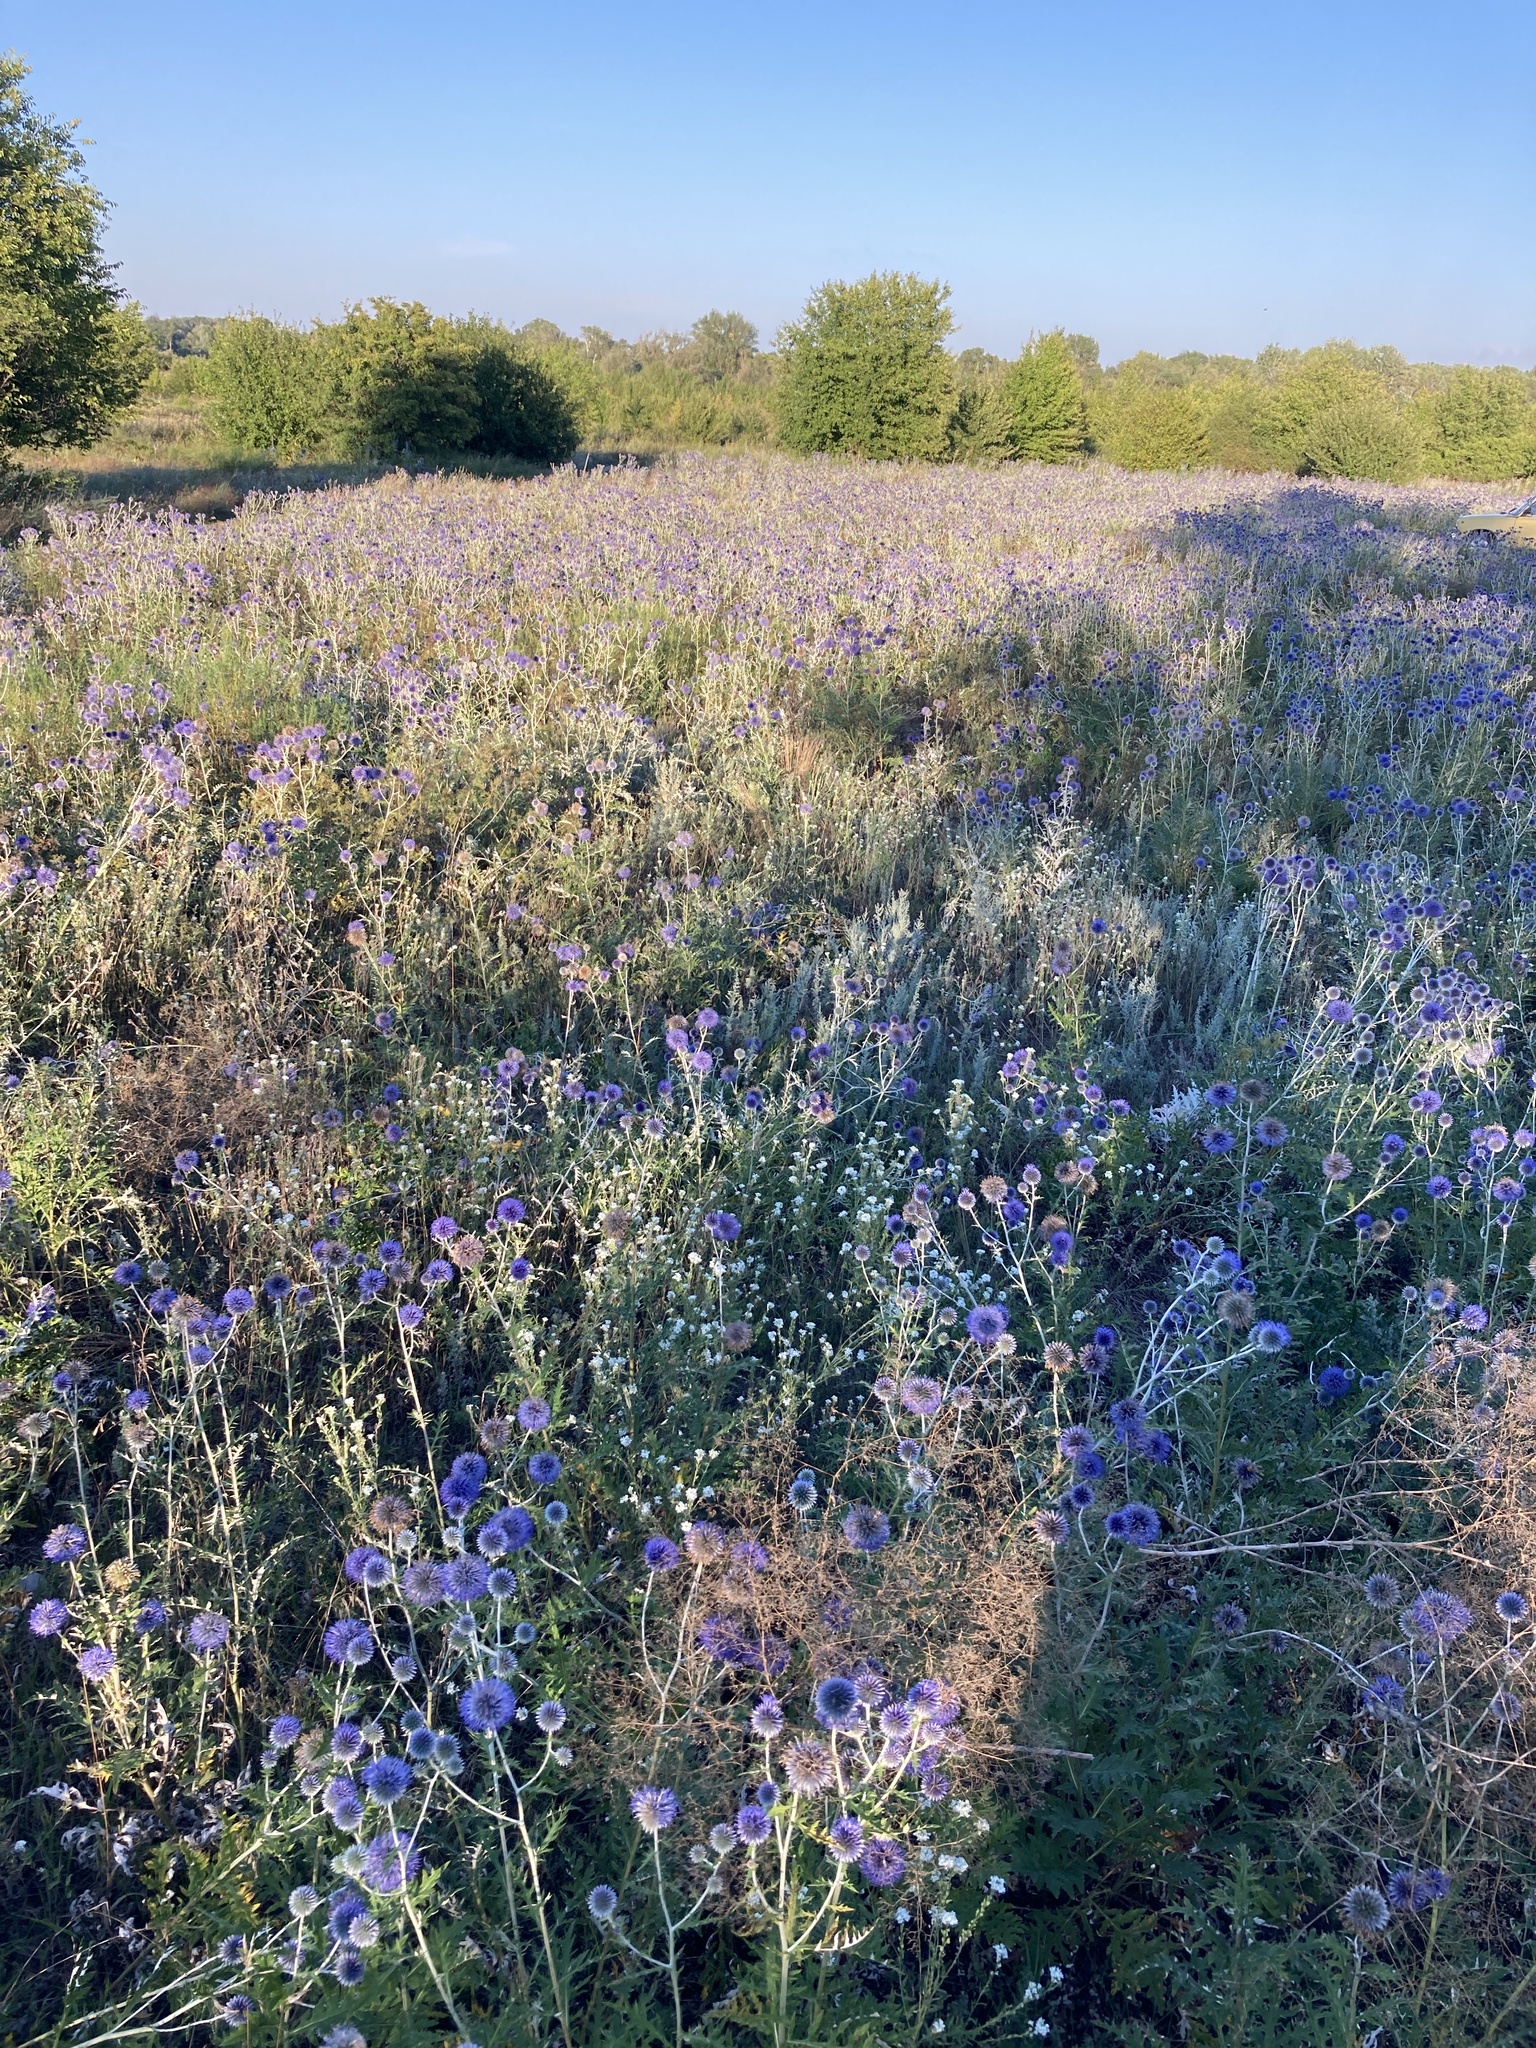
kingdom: Plantae
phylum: Tracheophyta
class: Magnoliopsida
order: Asterales
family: Asteraceae
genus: Echinops
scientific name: Echinops ritro
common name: Globe thistle
